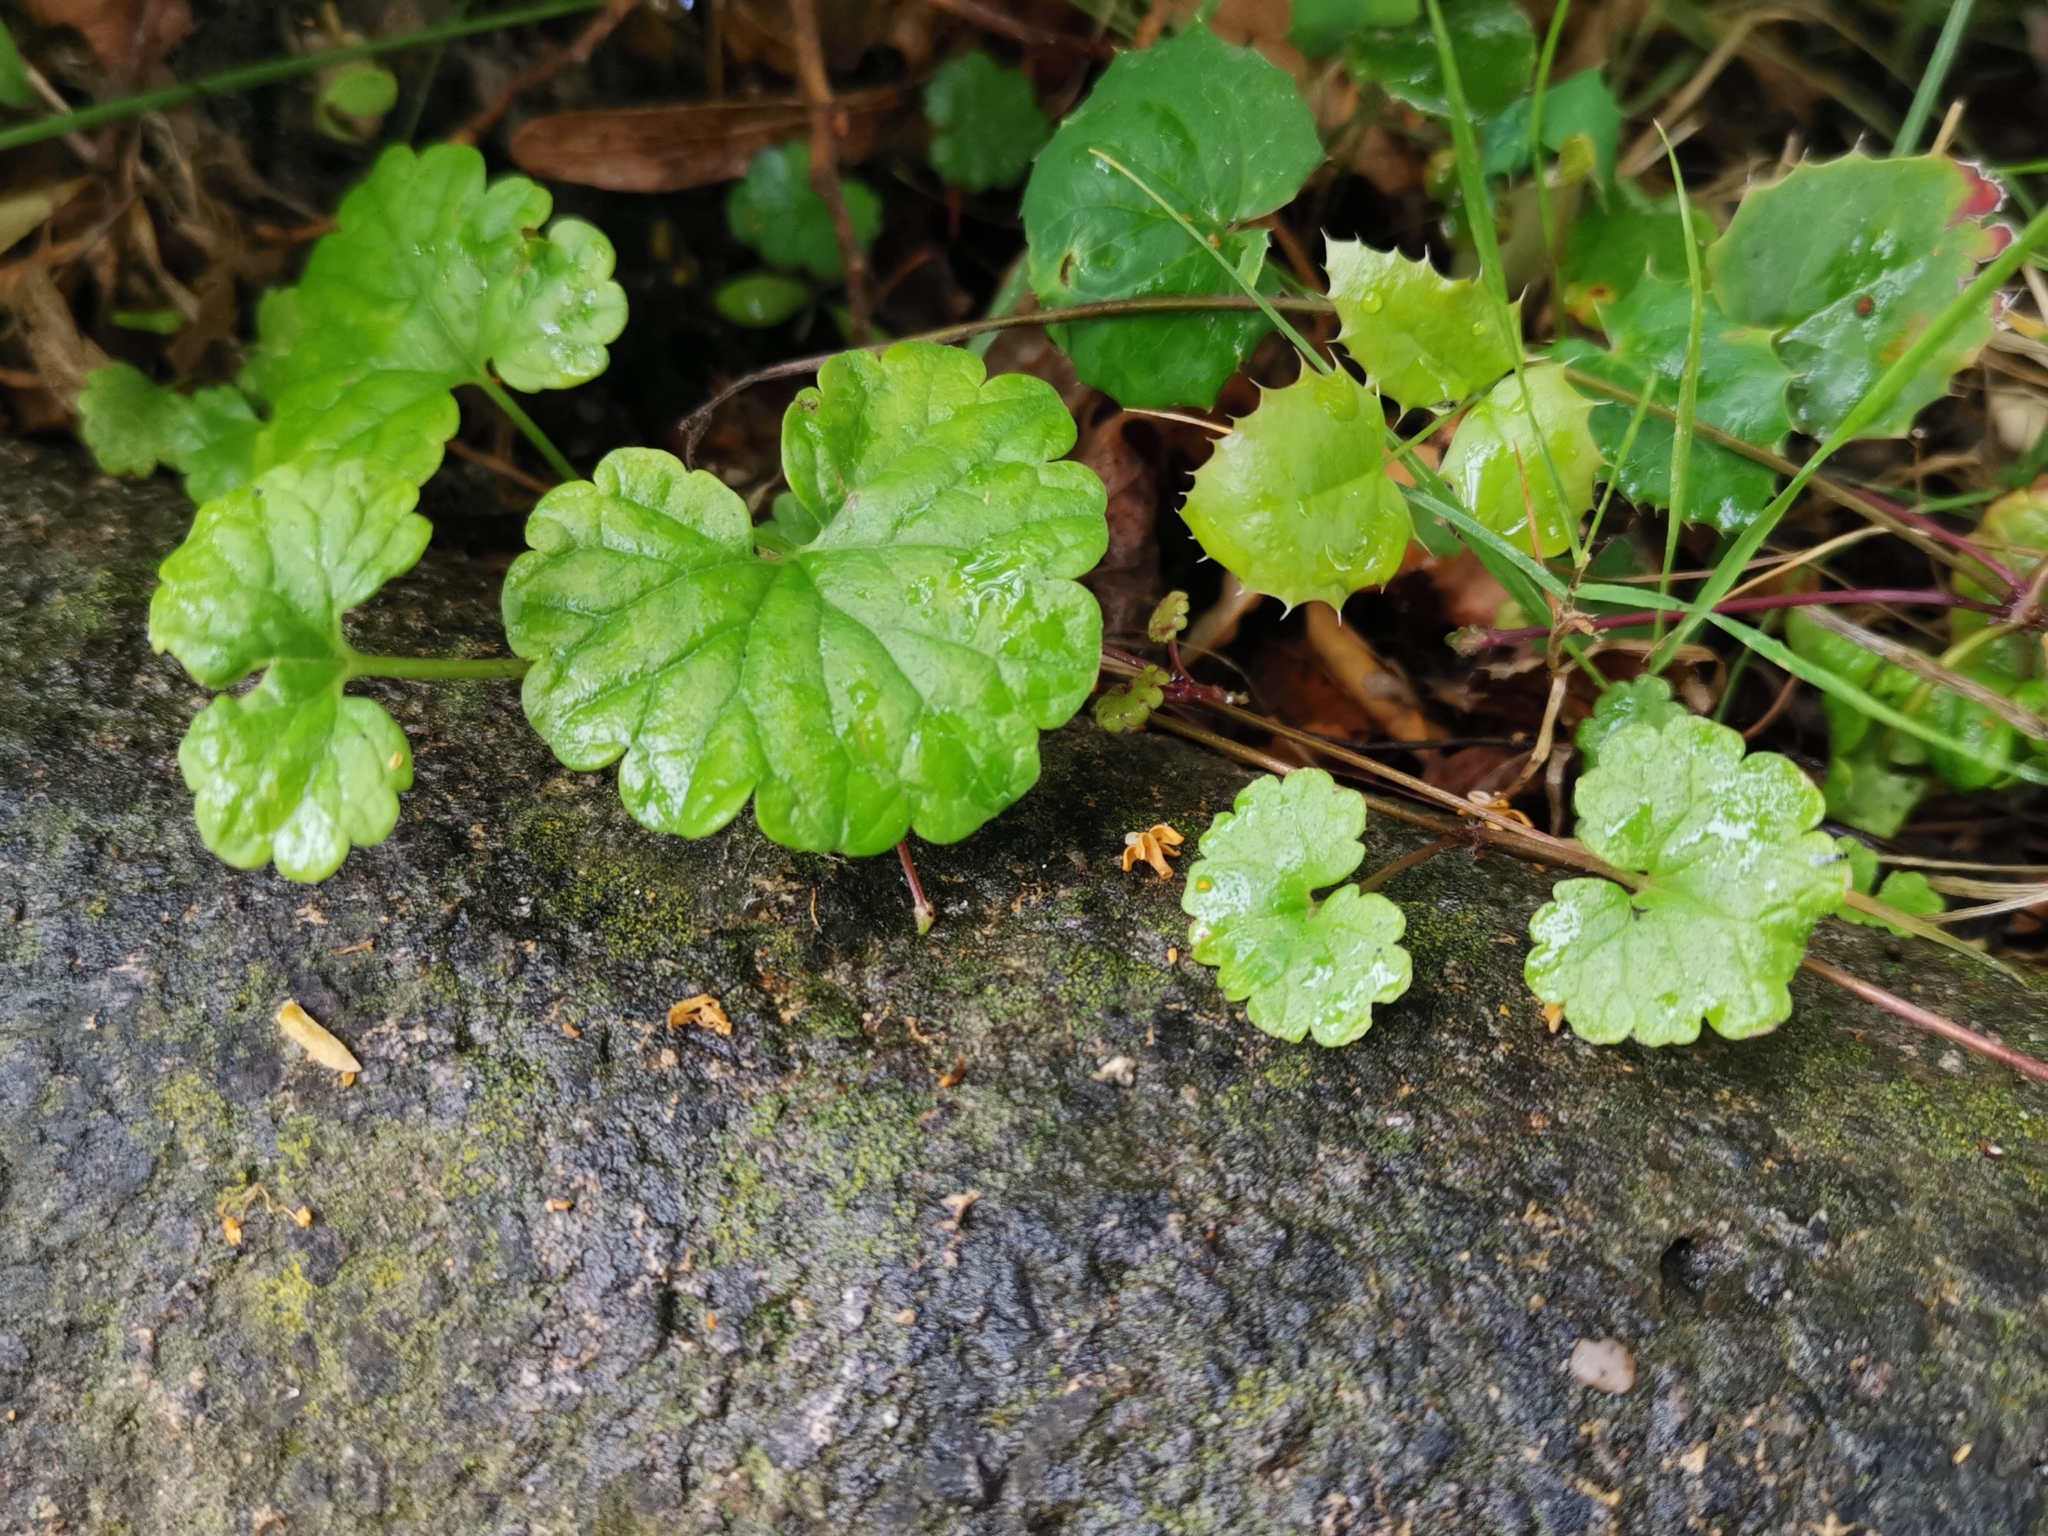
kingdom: Plantae
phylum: Tracheophyta
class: Magnoliopsida
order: Lamiales
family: Lamiaceae
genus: Glechoma
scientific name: Glechoma hederacea
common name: Ground ivy
